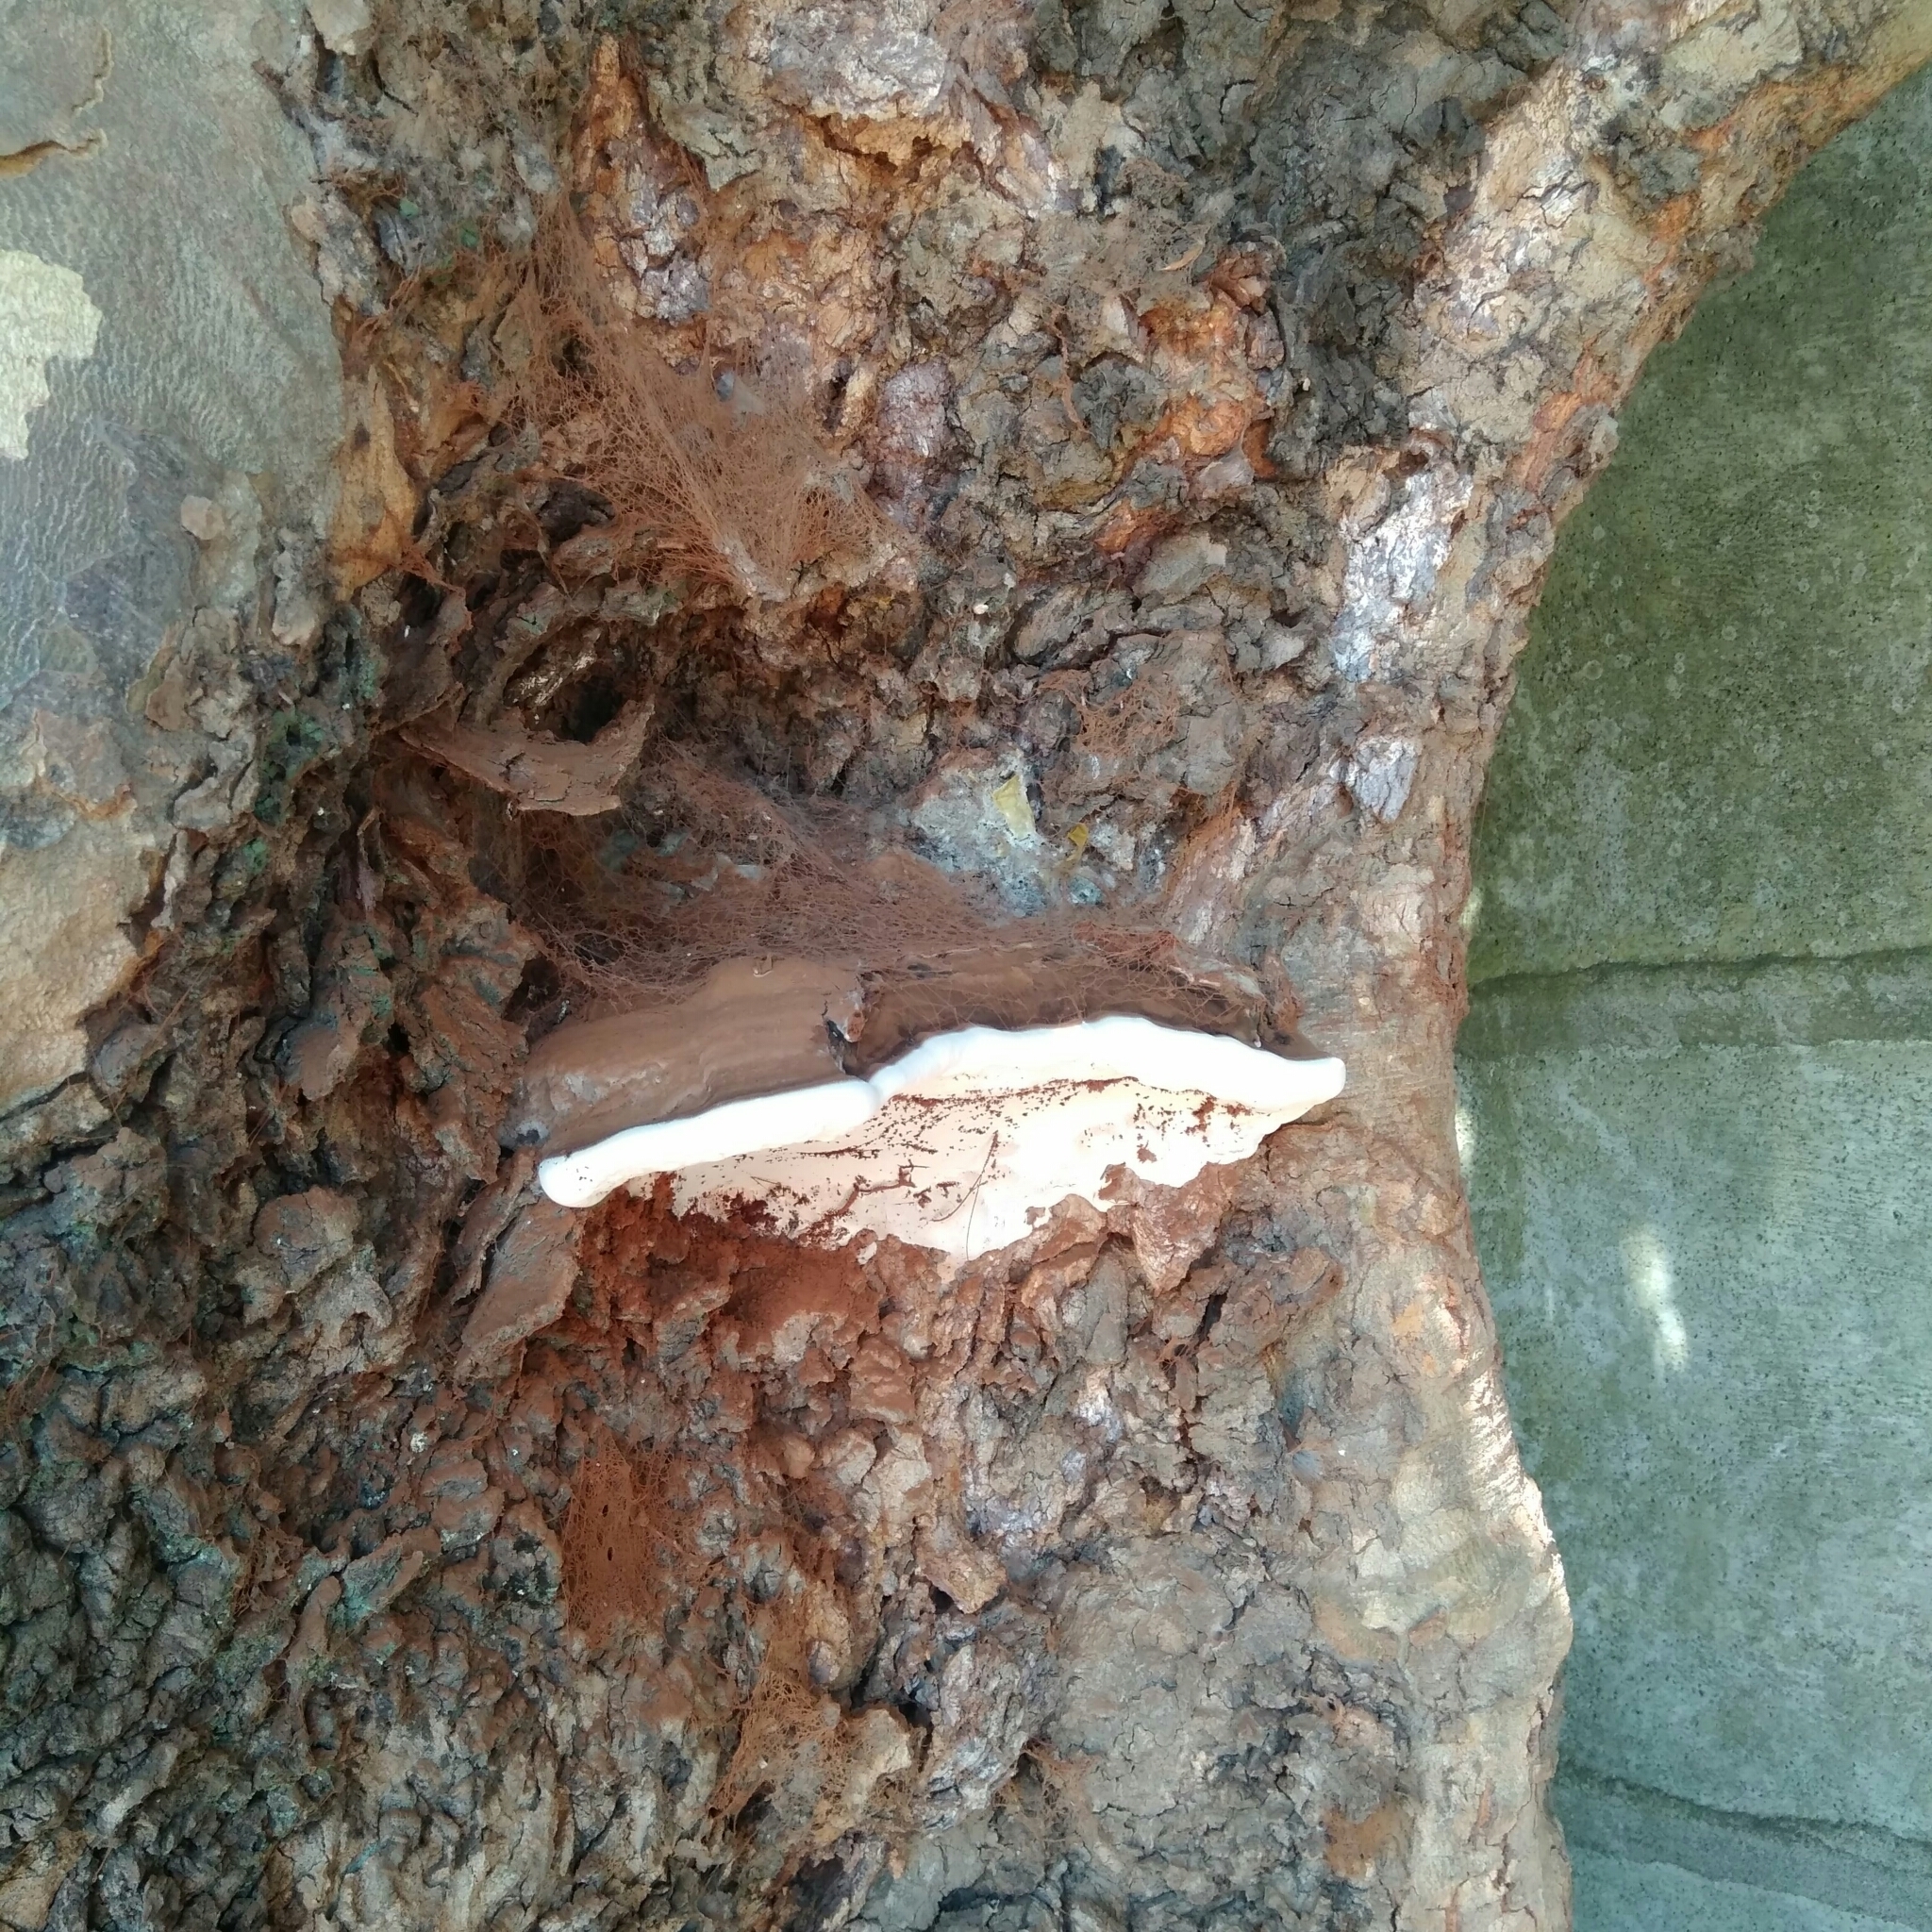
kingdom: Fungi
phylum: Basidiomycota
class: Agaricomycetes
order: Polyporales
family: Polyporaceae
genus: Ganoderma
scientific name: Ganoderma australe
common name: Southern bracket
